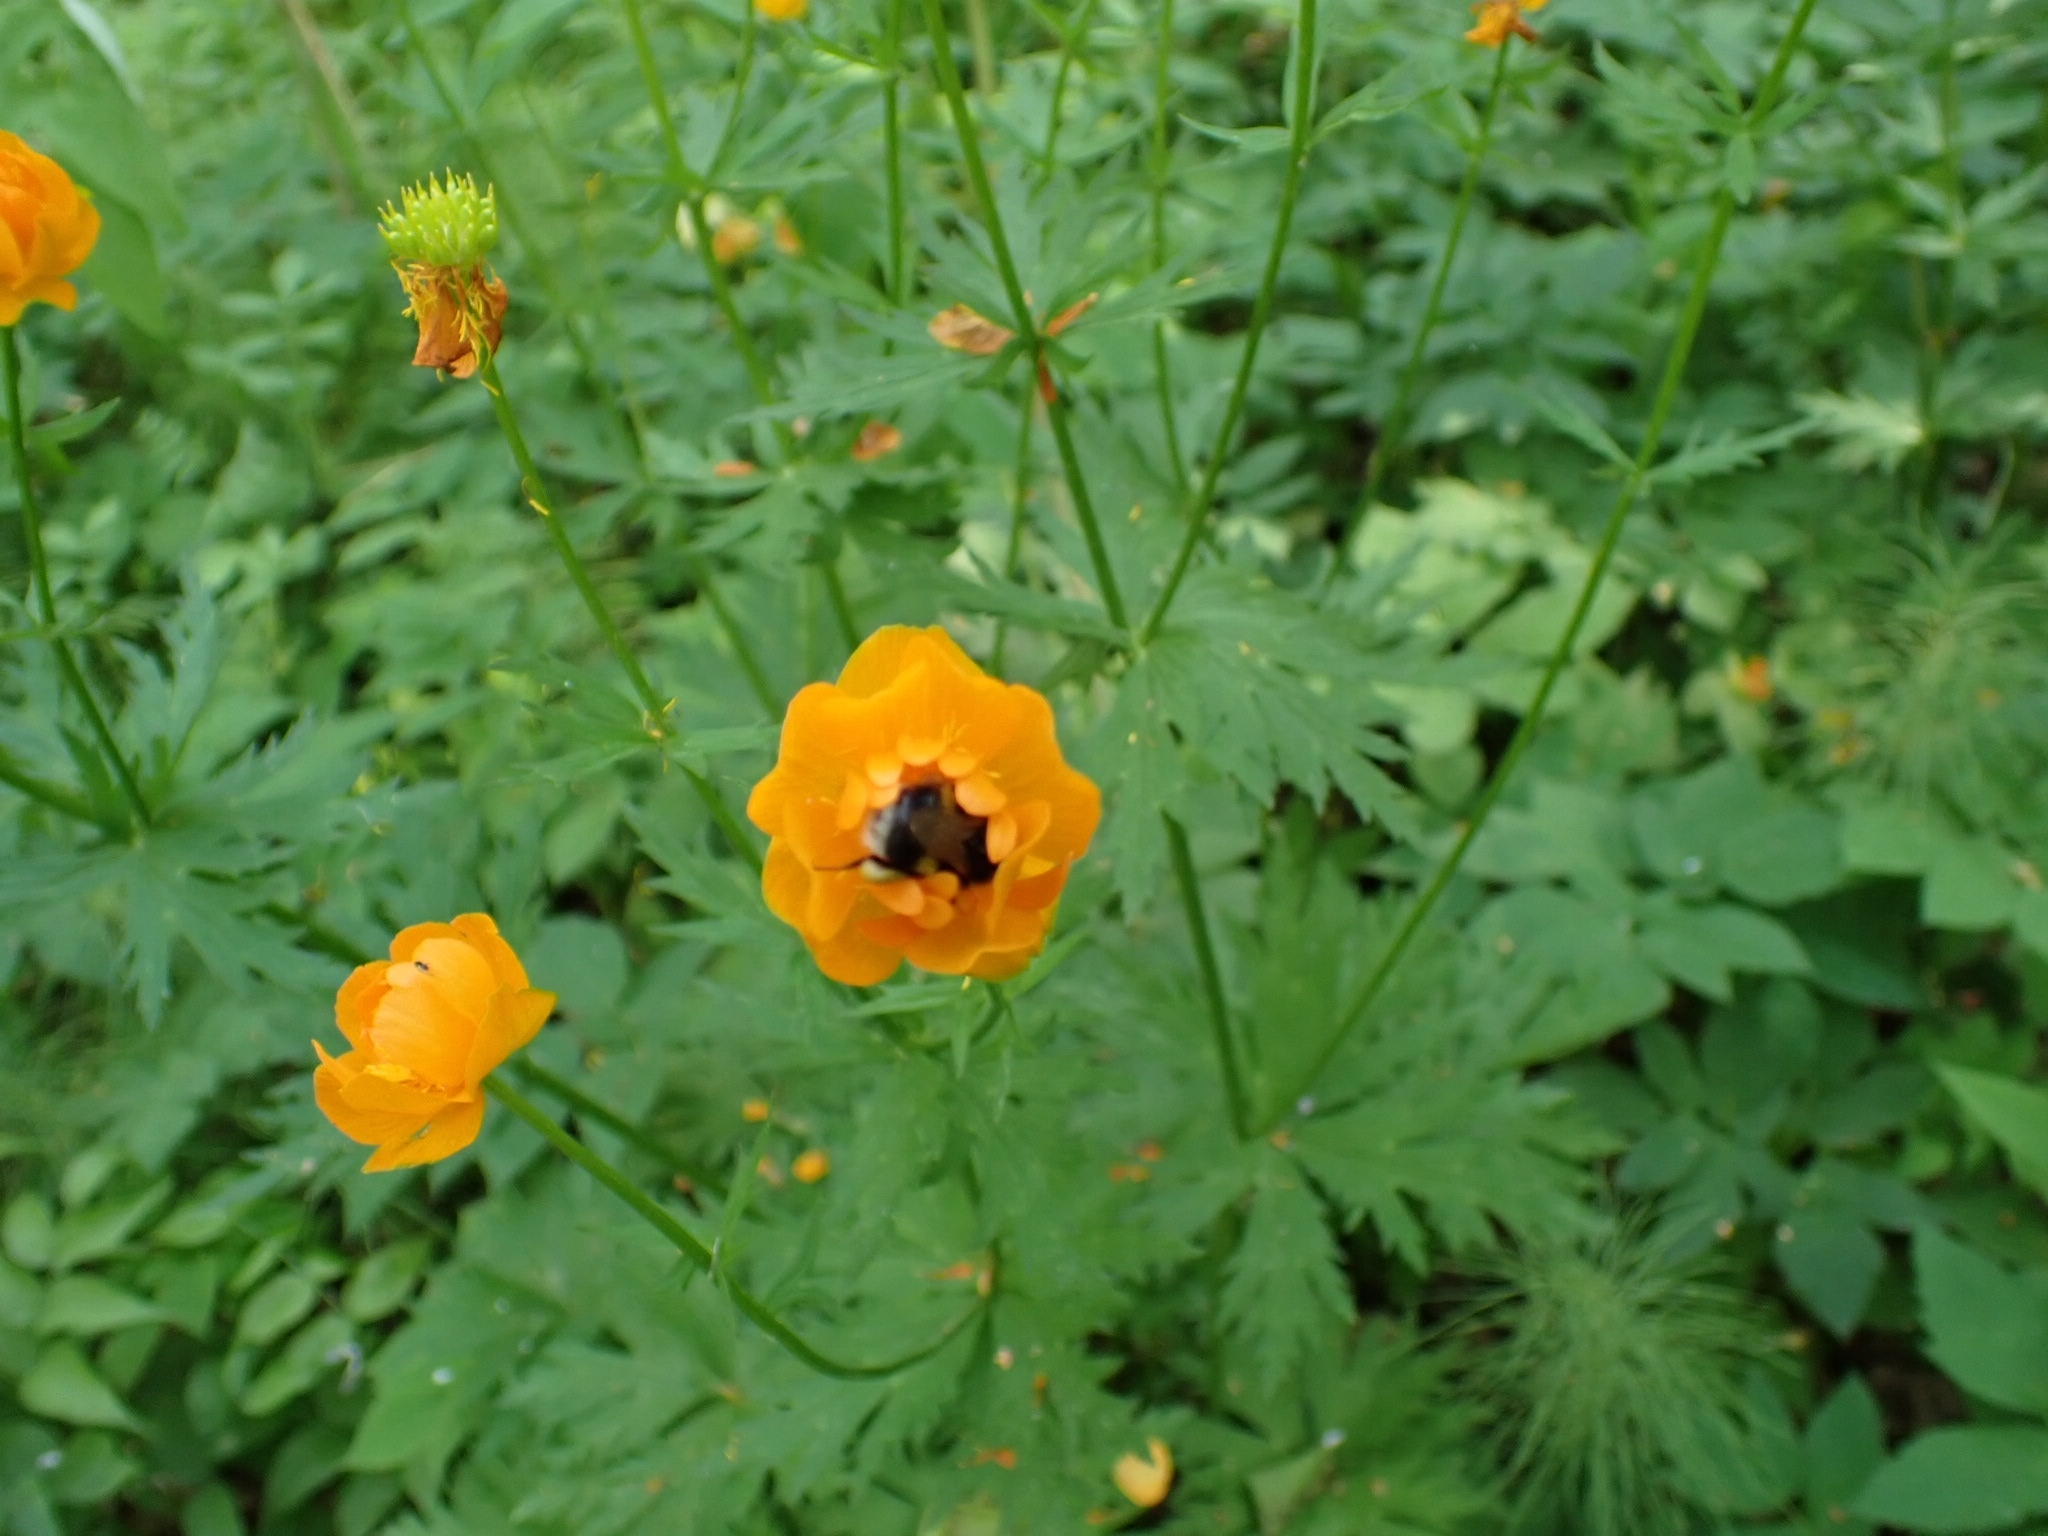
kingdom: Animalia
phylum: Arthropoda
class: Insecta
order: Hymenoptera
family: Apidae
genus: Bombus
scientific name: Bombus soroeensis
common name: Broken-belted humble-bee
